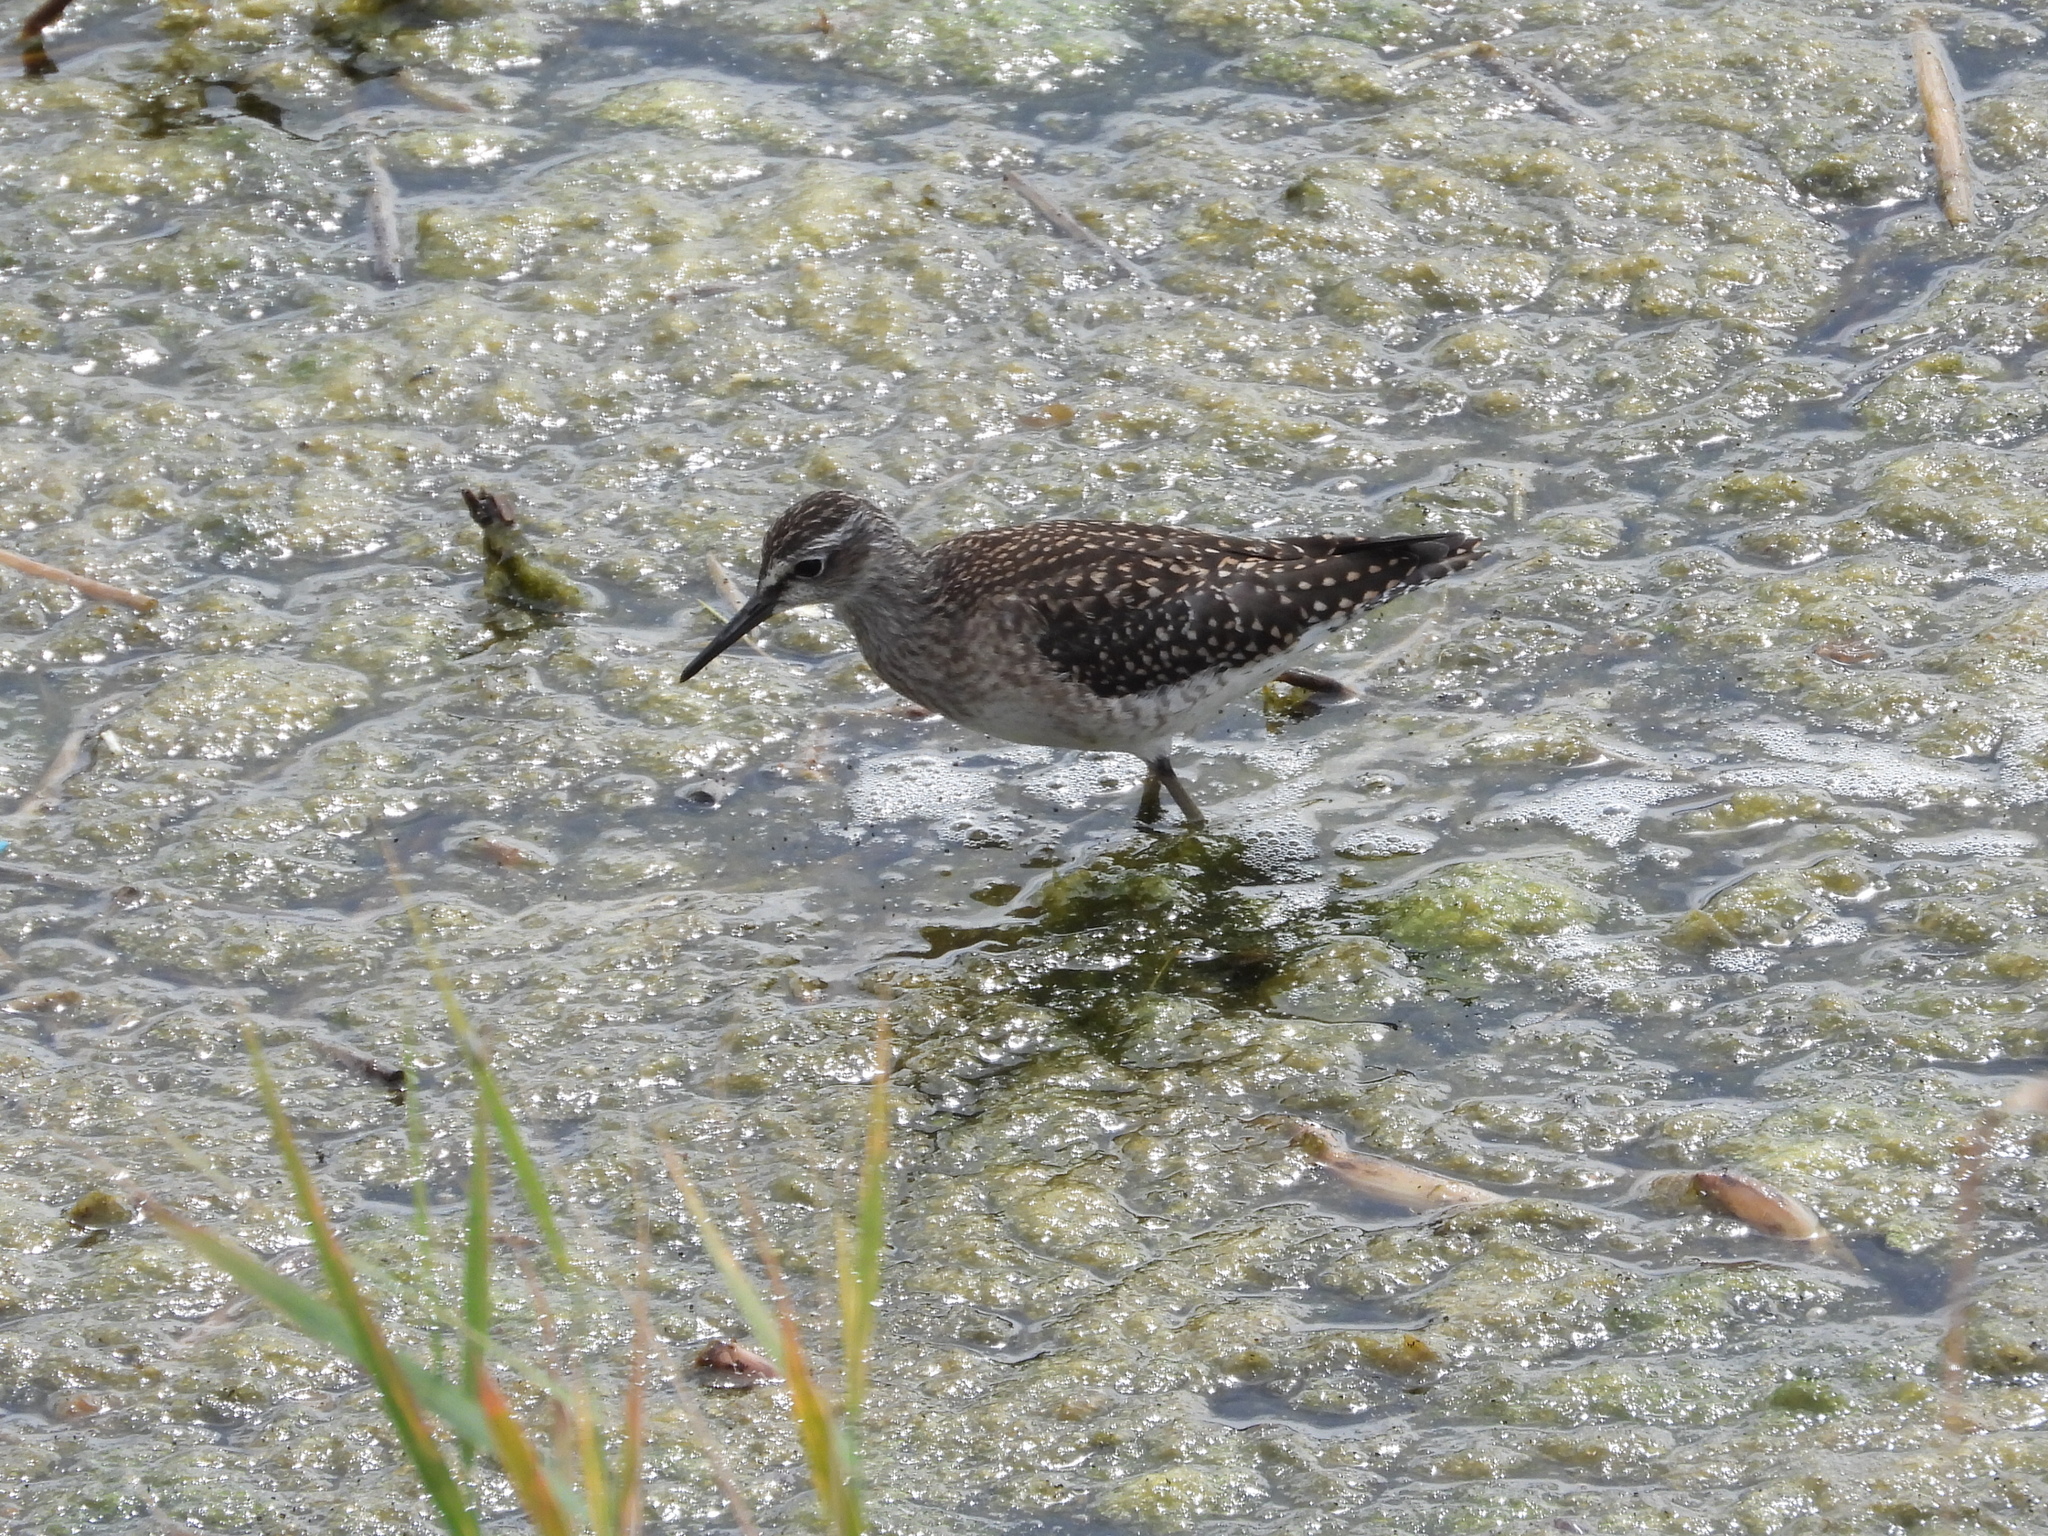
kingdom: Animalia
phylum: Chordata
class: Aves
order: Charadriiformes
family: Scolopacidae
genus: Tringa
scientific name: Tringa glareola
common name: Wood sandpiper
